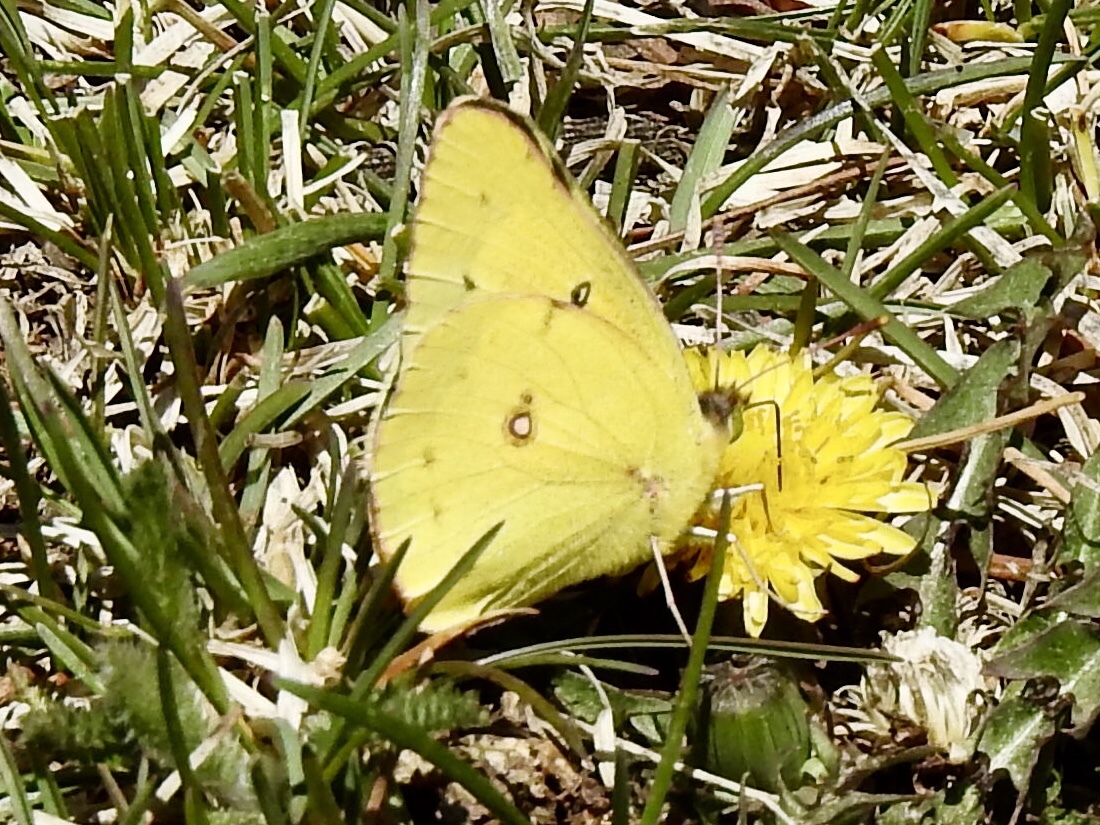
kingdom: Animalia
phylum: Arthropoda
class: Insecta
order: Lepidoptera
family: Pieridae
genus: Colias
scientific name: Colias eurytheme
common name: Alfalfa butterfly
